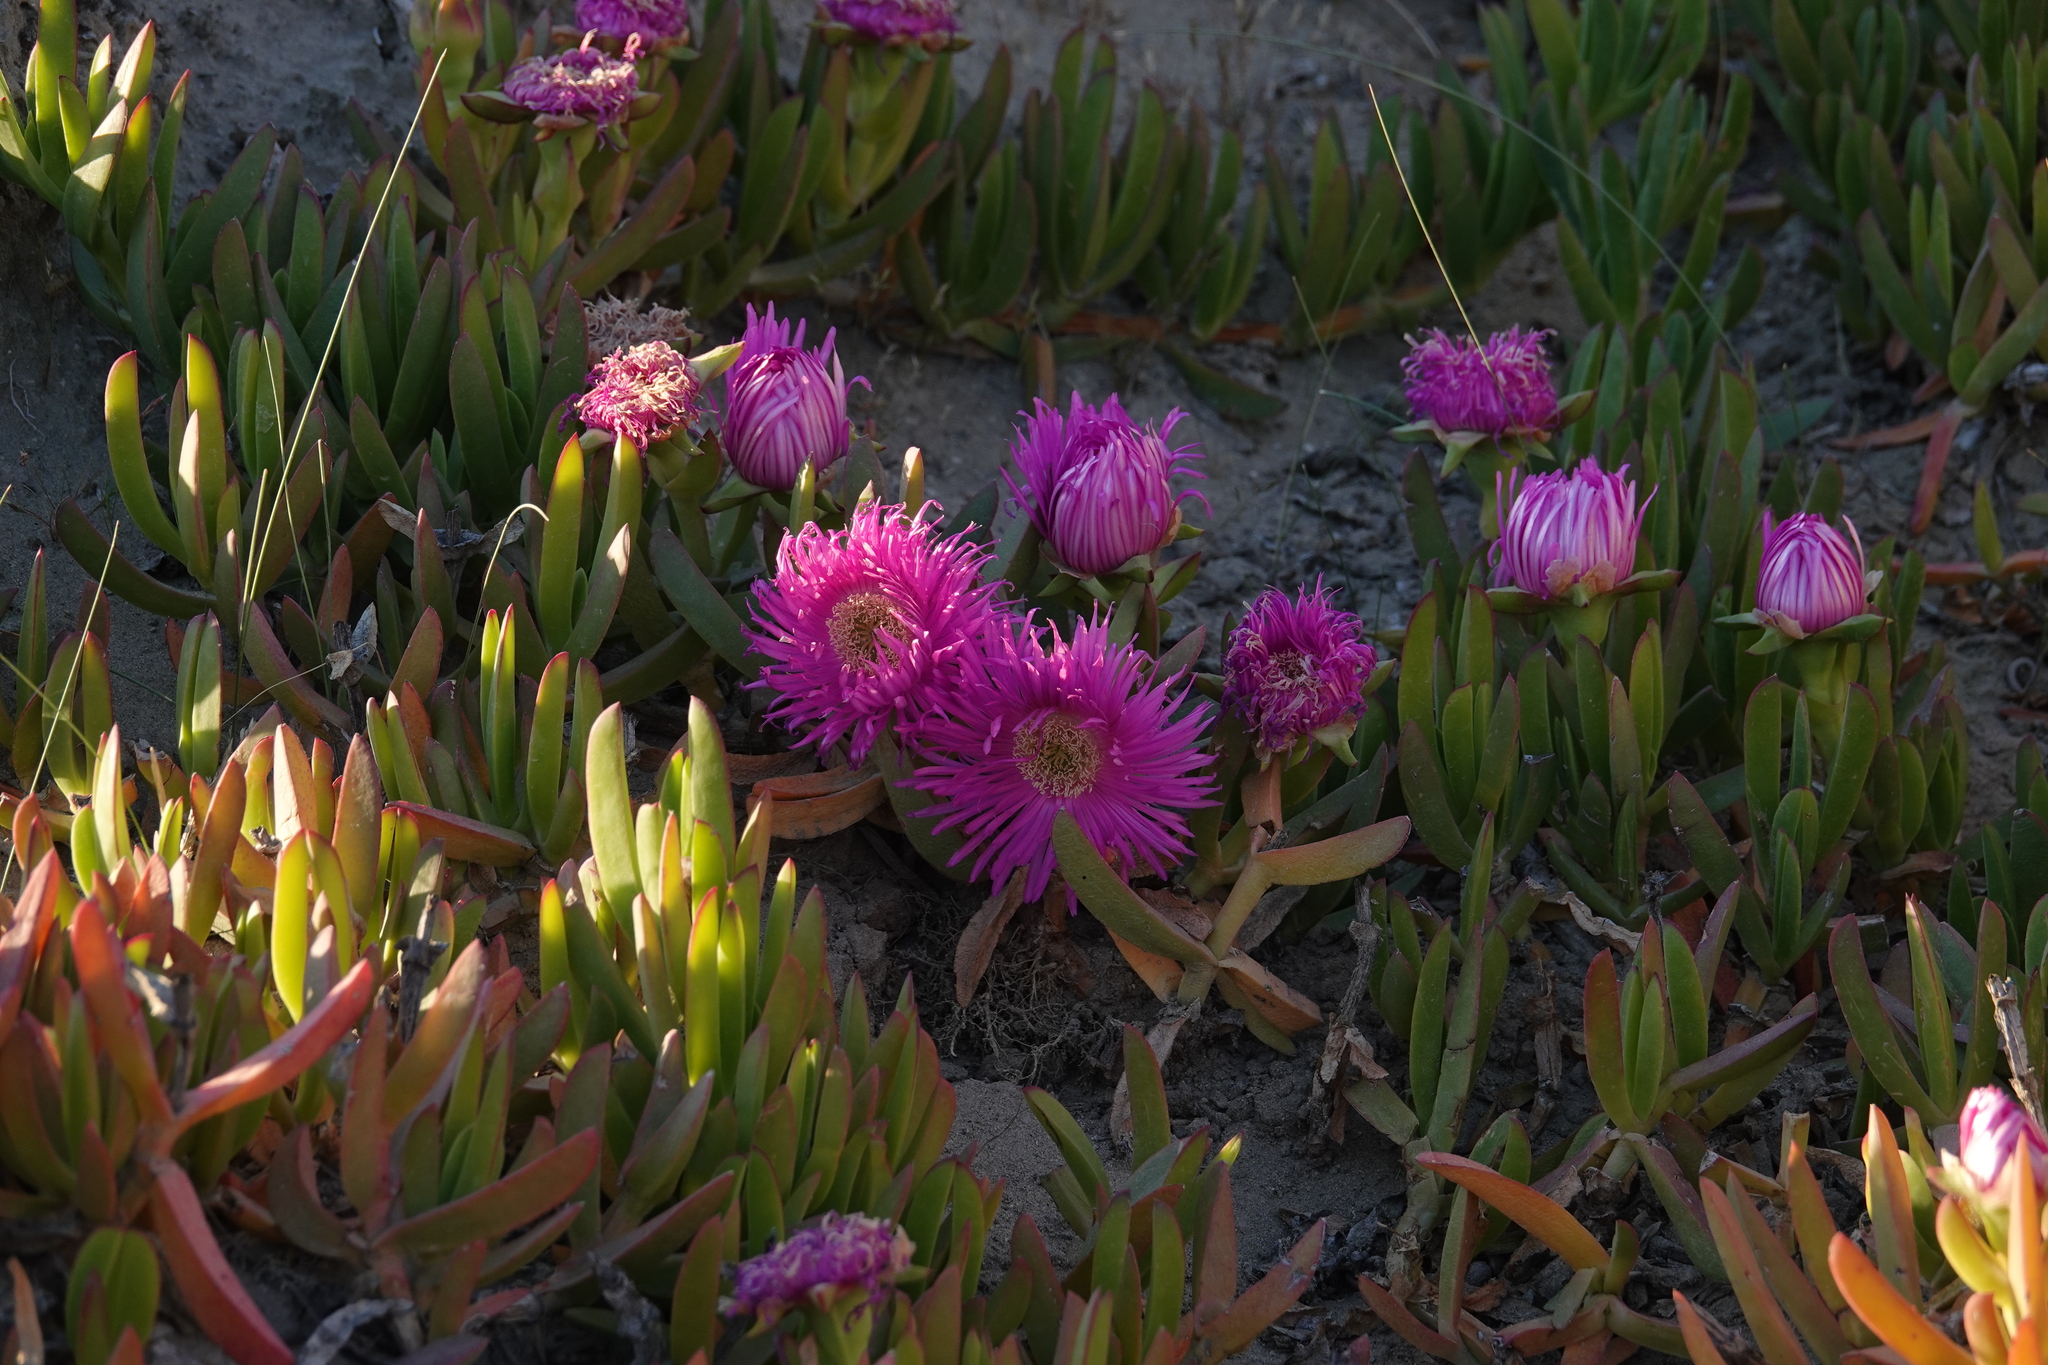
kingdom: Plantae
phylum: Tracheophyta
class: Magnoliopsida
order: Caryophyllales
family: Aizoaceae
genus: Carpobrotus
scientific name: Carpobrotus chilensis
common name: Sea fig
